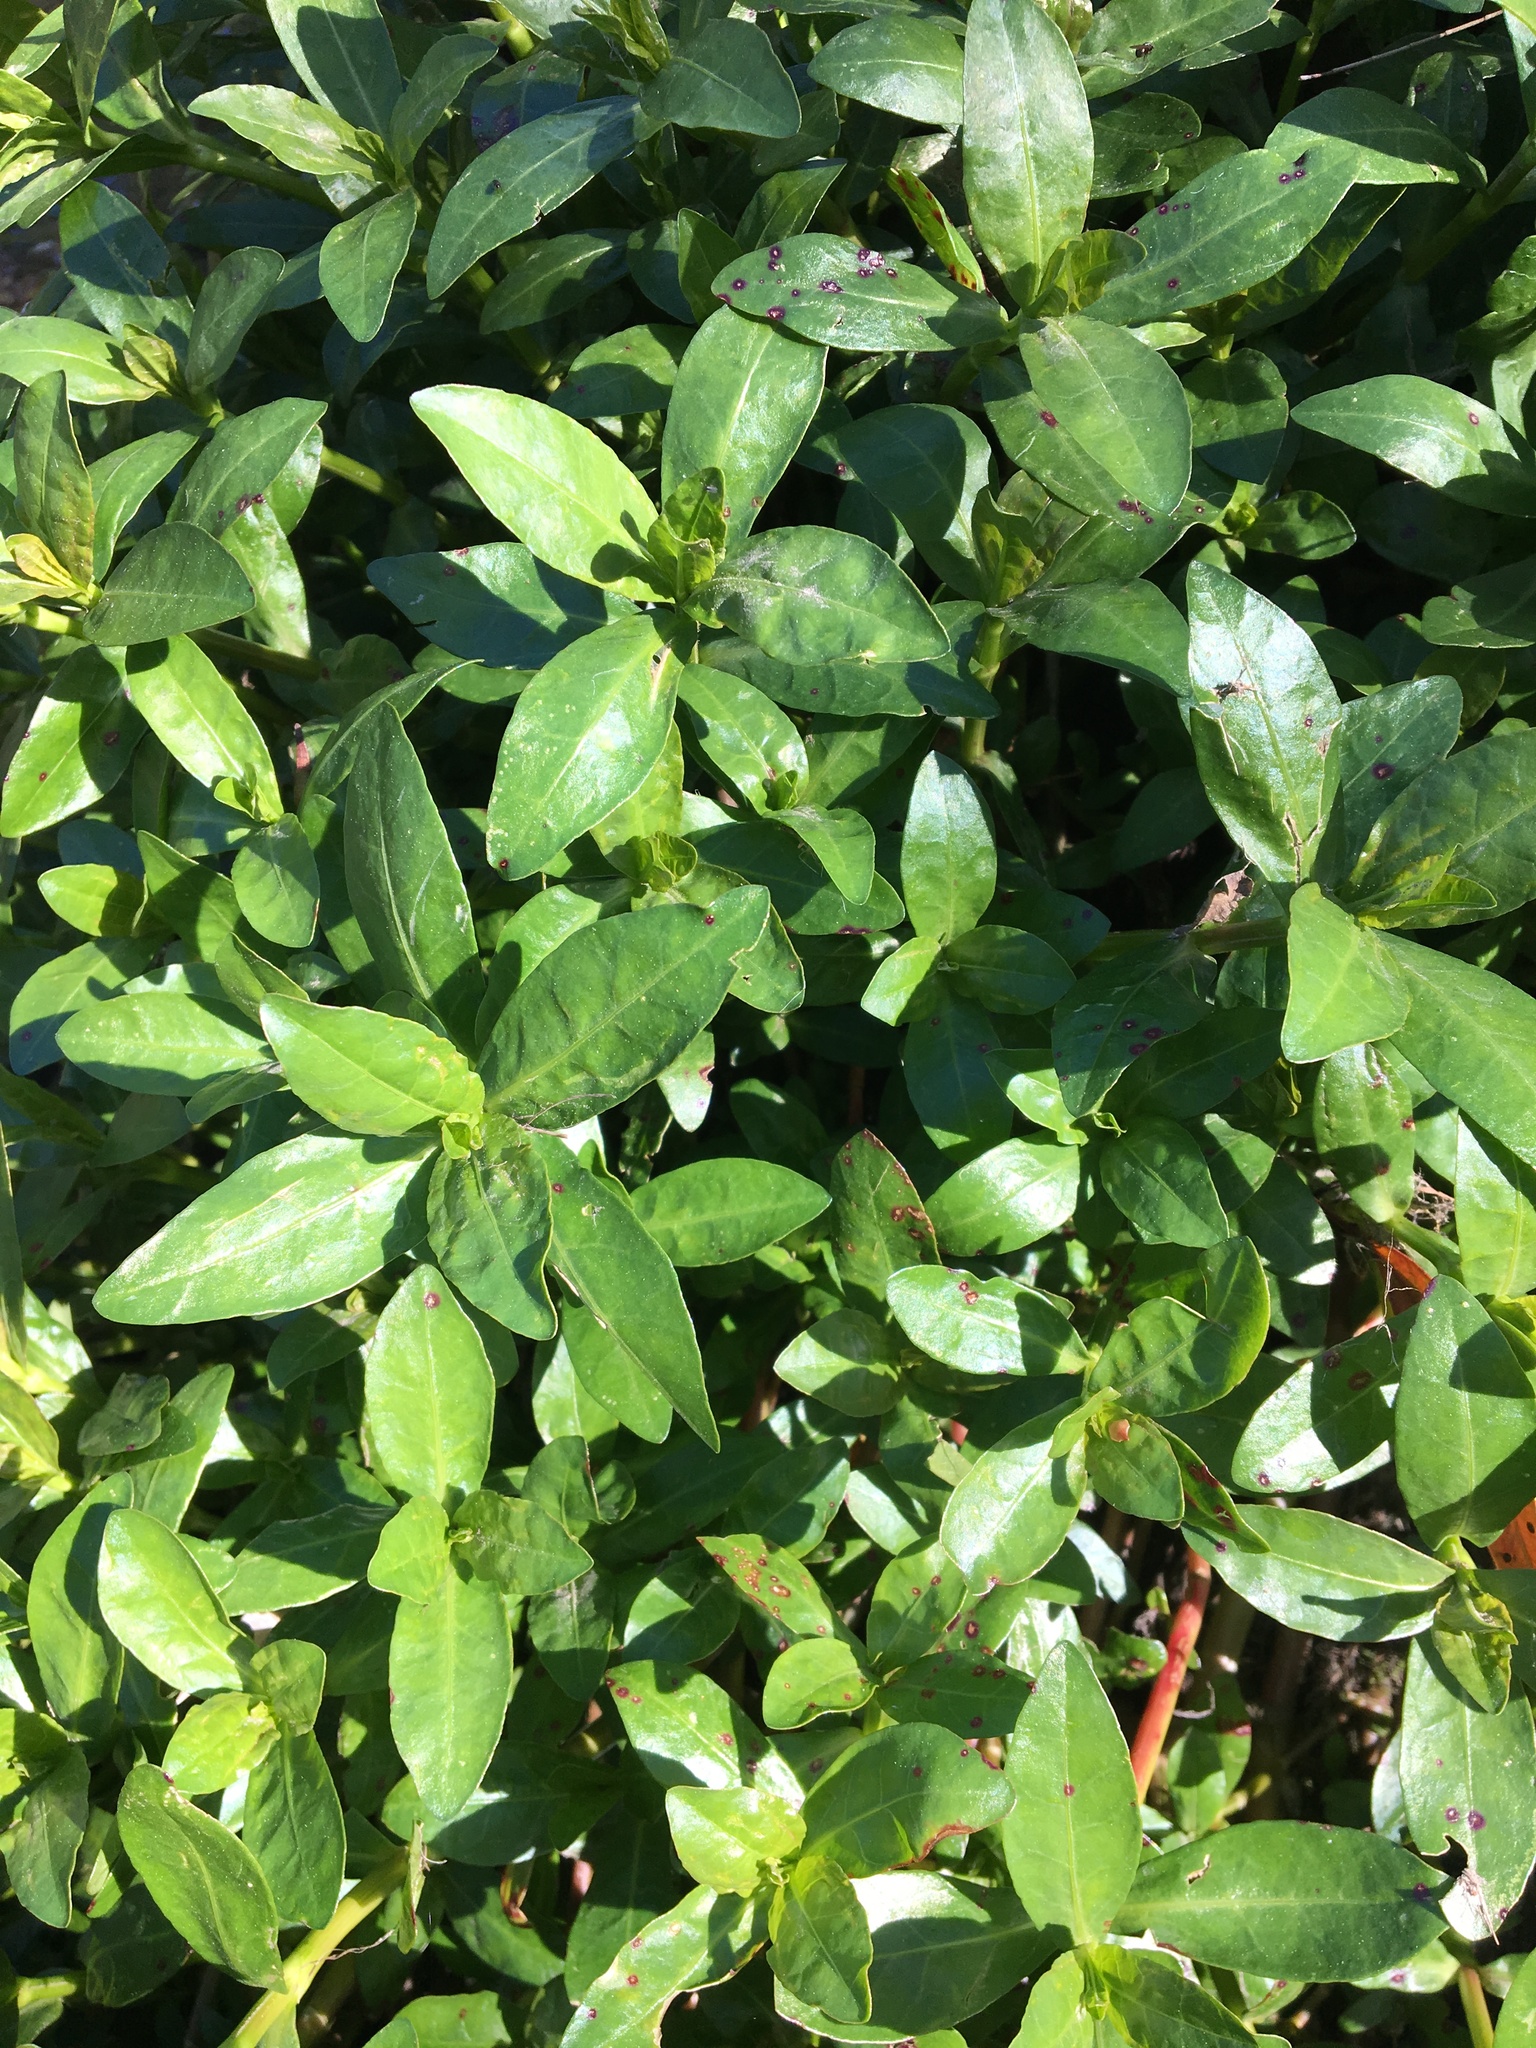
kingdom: Plantae
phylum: Tracheophyta
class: Magnoliopsida
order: Caryophyllales
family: Amaranthaceae
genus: Alternanthera
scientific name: Alternanthera philoxeroides
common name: Alligatorweed
